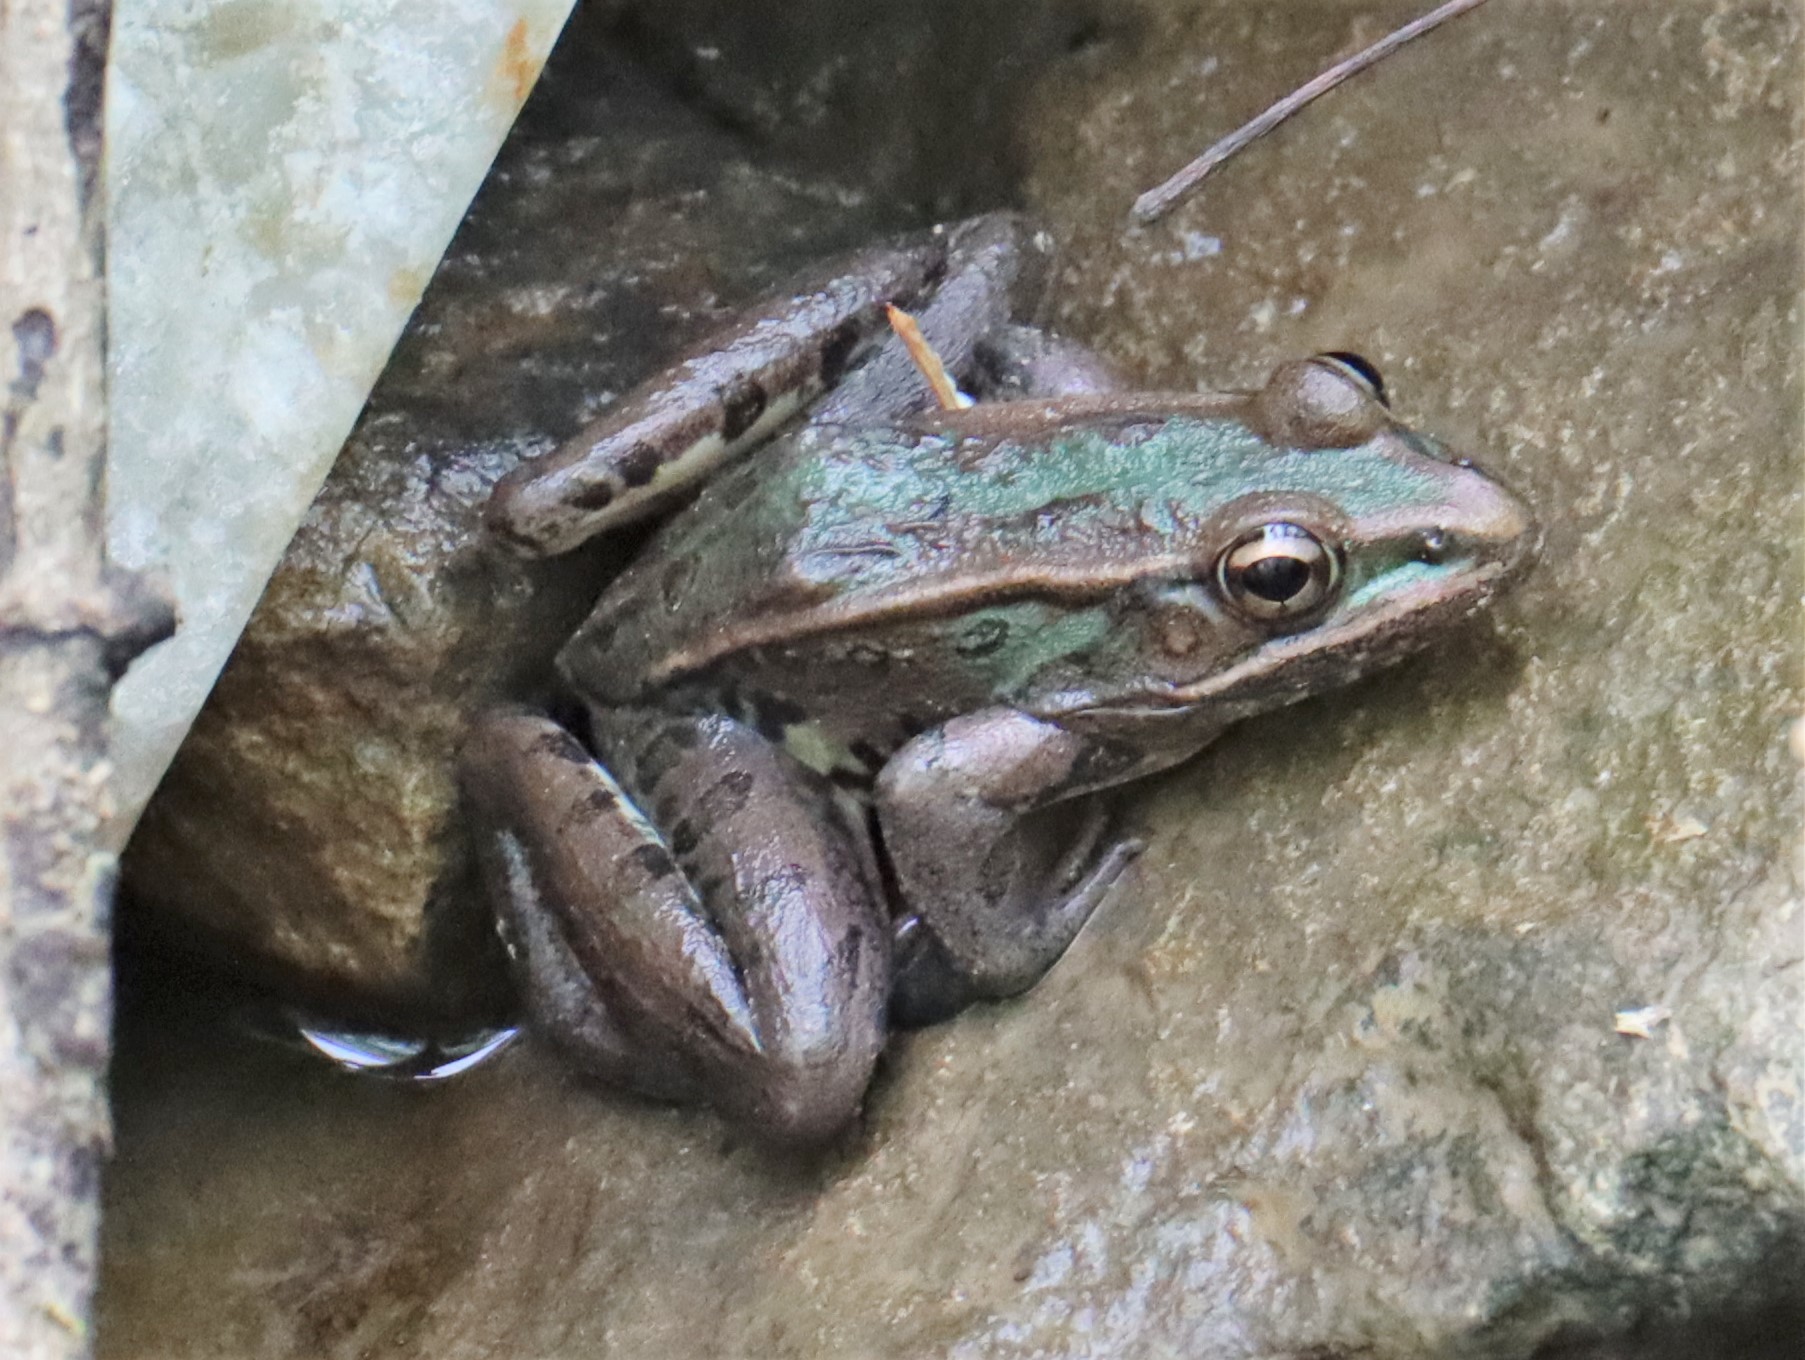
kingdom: Animalia
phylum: Chordata
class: Amphibia
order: Anura
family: Ranidae
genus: Lithobates
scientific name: Lithobates sphenocephalus
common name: Southern leopard frog
